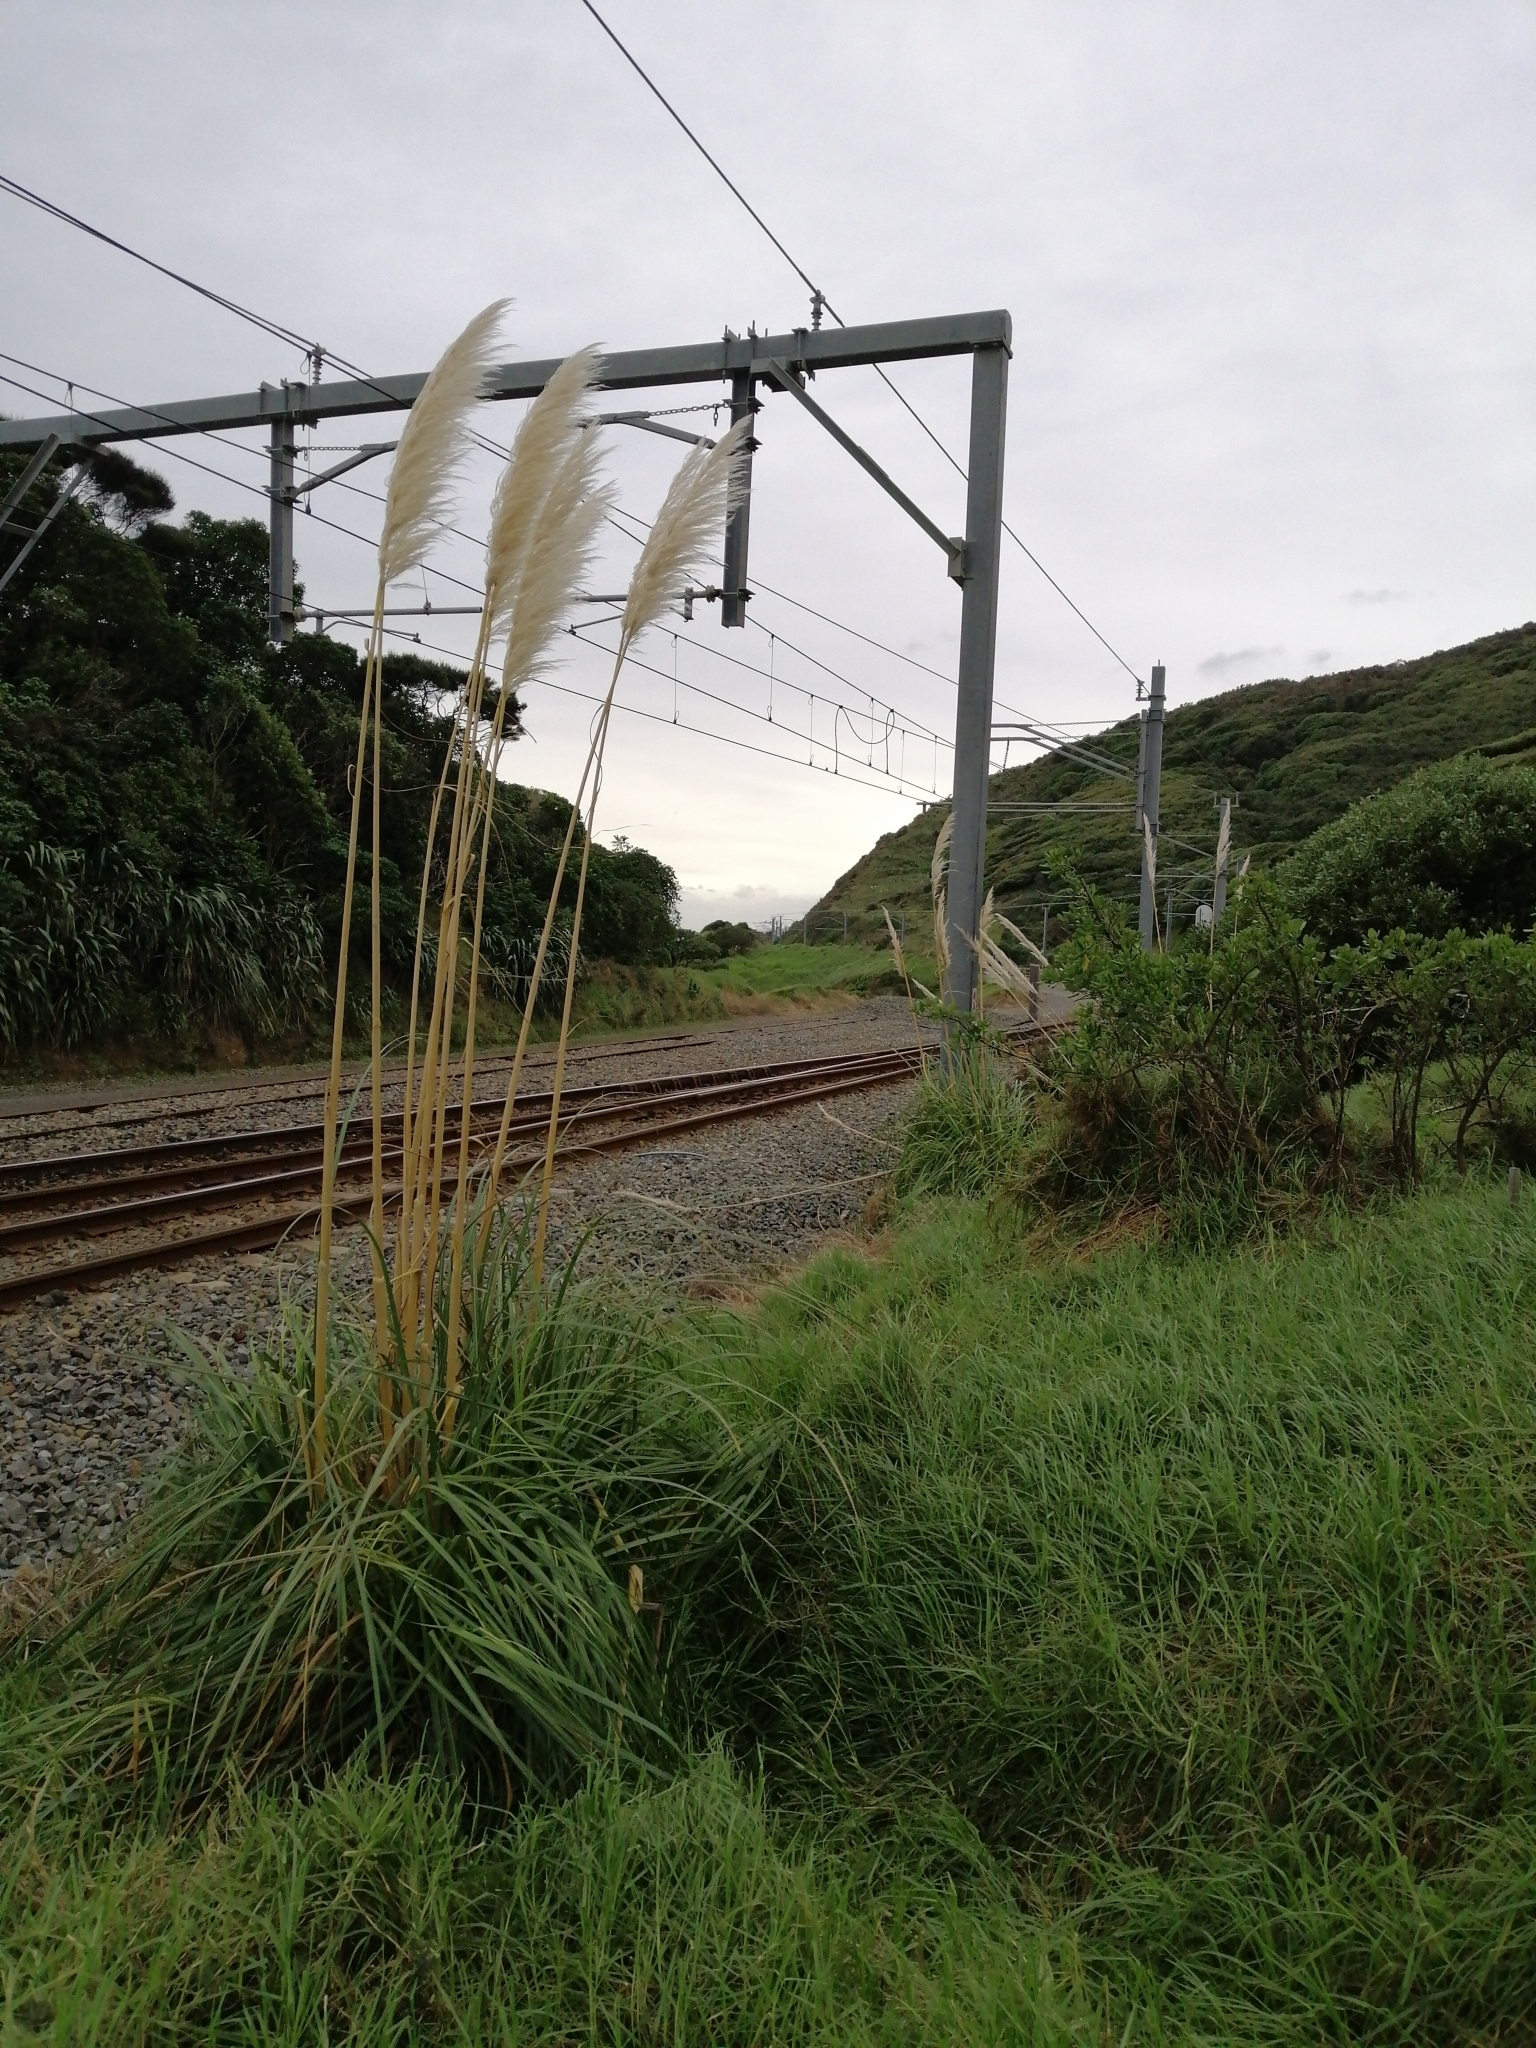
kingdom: Plantae
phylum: Tracheophyta
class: Liliopsida
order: Poales
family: Poaceae
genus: Cortaderia
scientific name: Cortaderia selloana
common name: Uruguayan pampas grass
